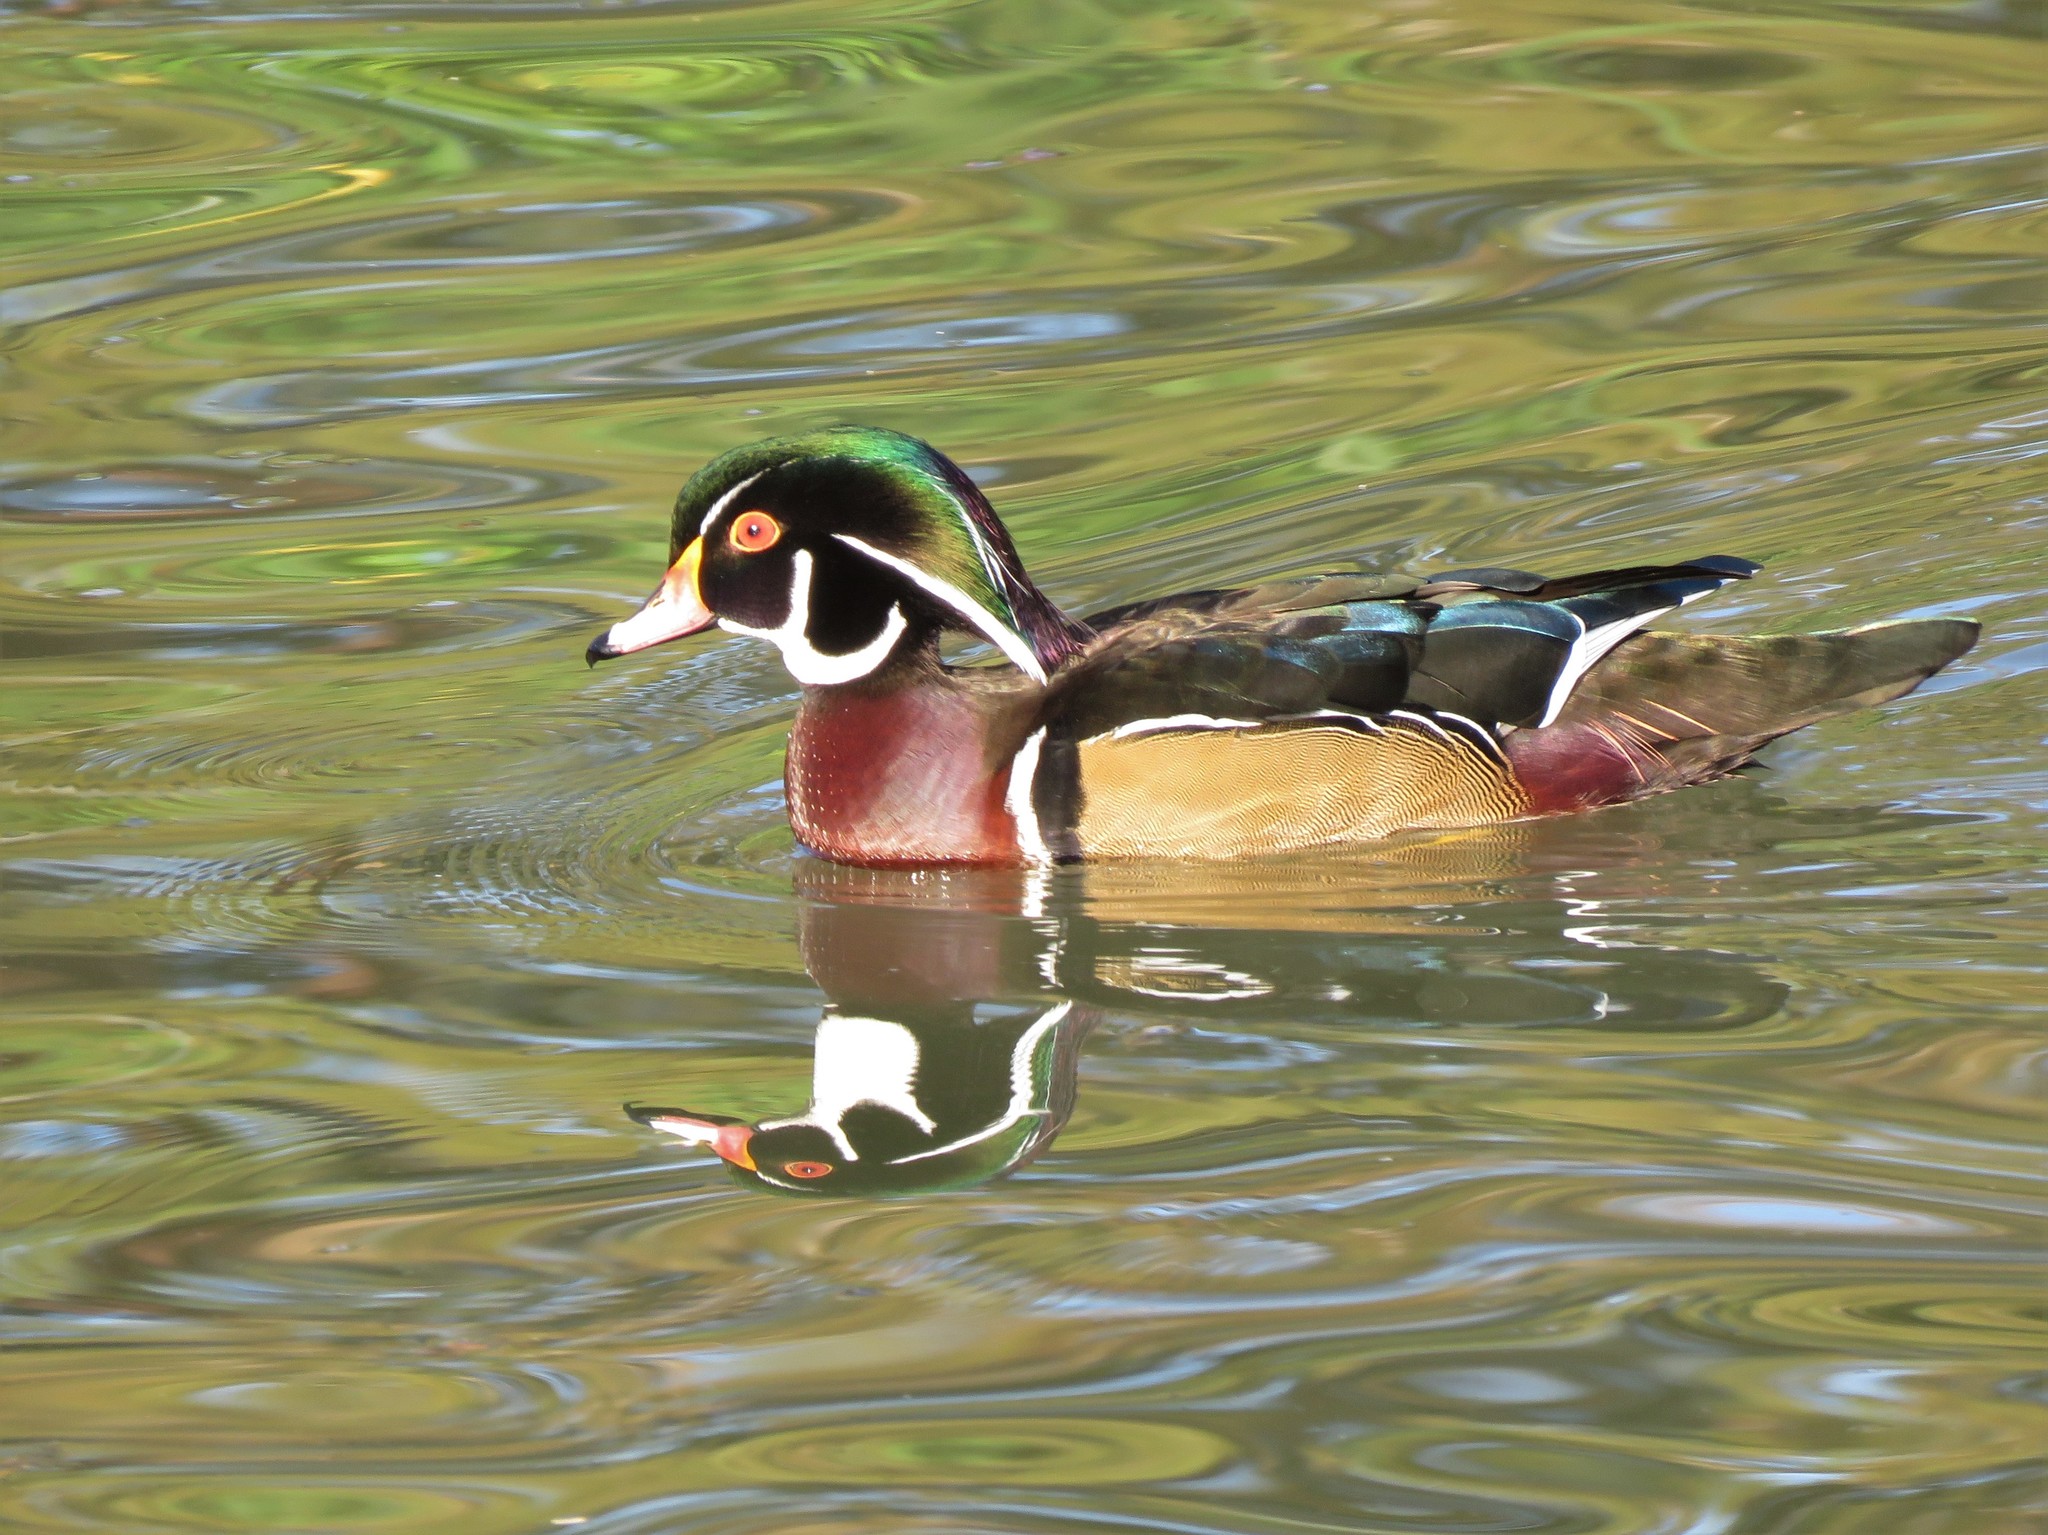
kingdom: Animalia
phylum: Chordata
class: Aves
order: Anseriformes
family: Anatidae
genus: Aix
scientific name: Aix sponsa
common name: Wood duck
